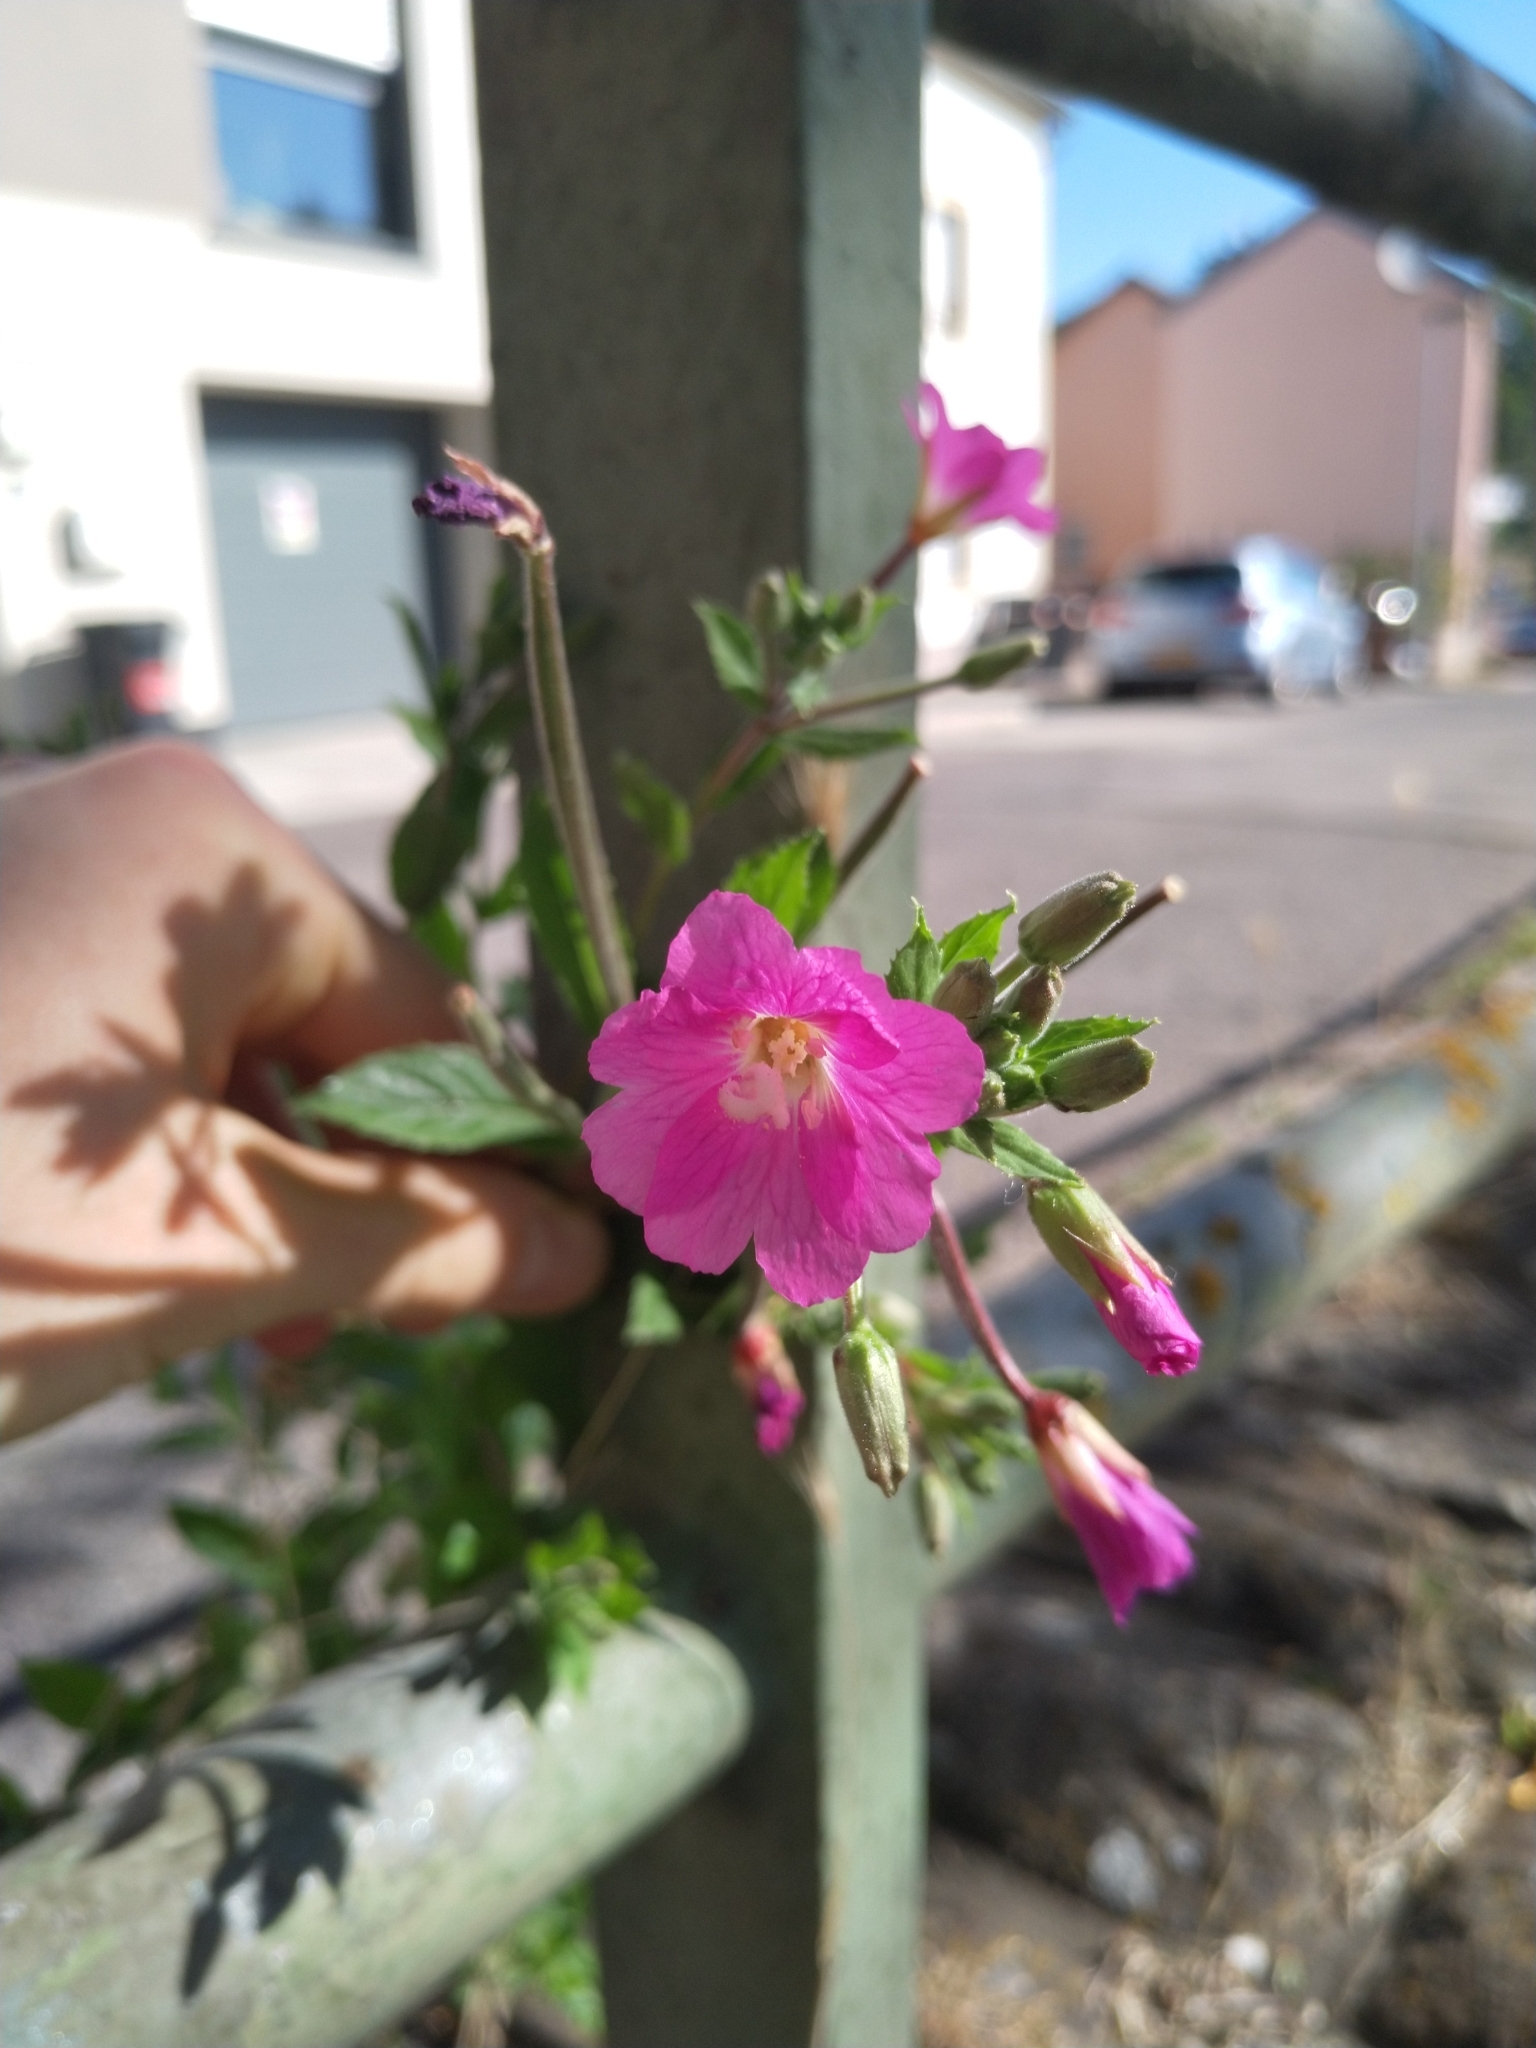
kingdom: Plantae
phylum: Tracheophyta
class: Magnoliopsida
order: Myrtales
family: Onagraceae
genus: Epilobium
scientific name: Epilobium hirsutum
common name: Great willowherb
